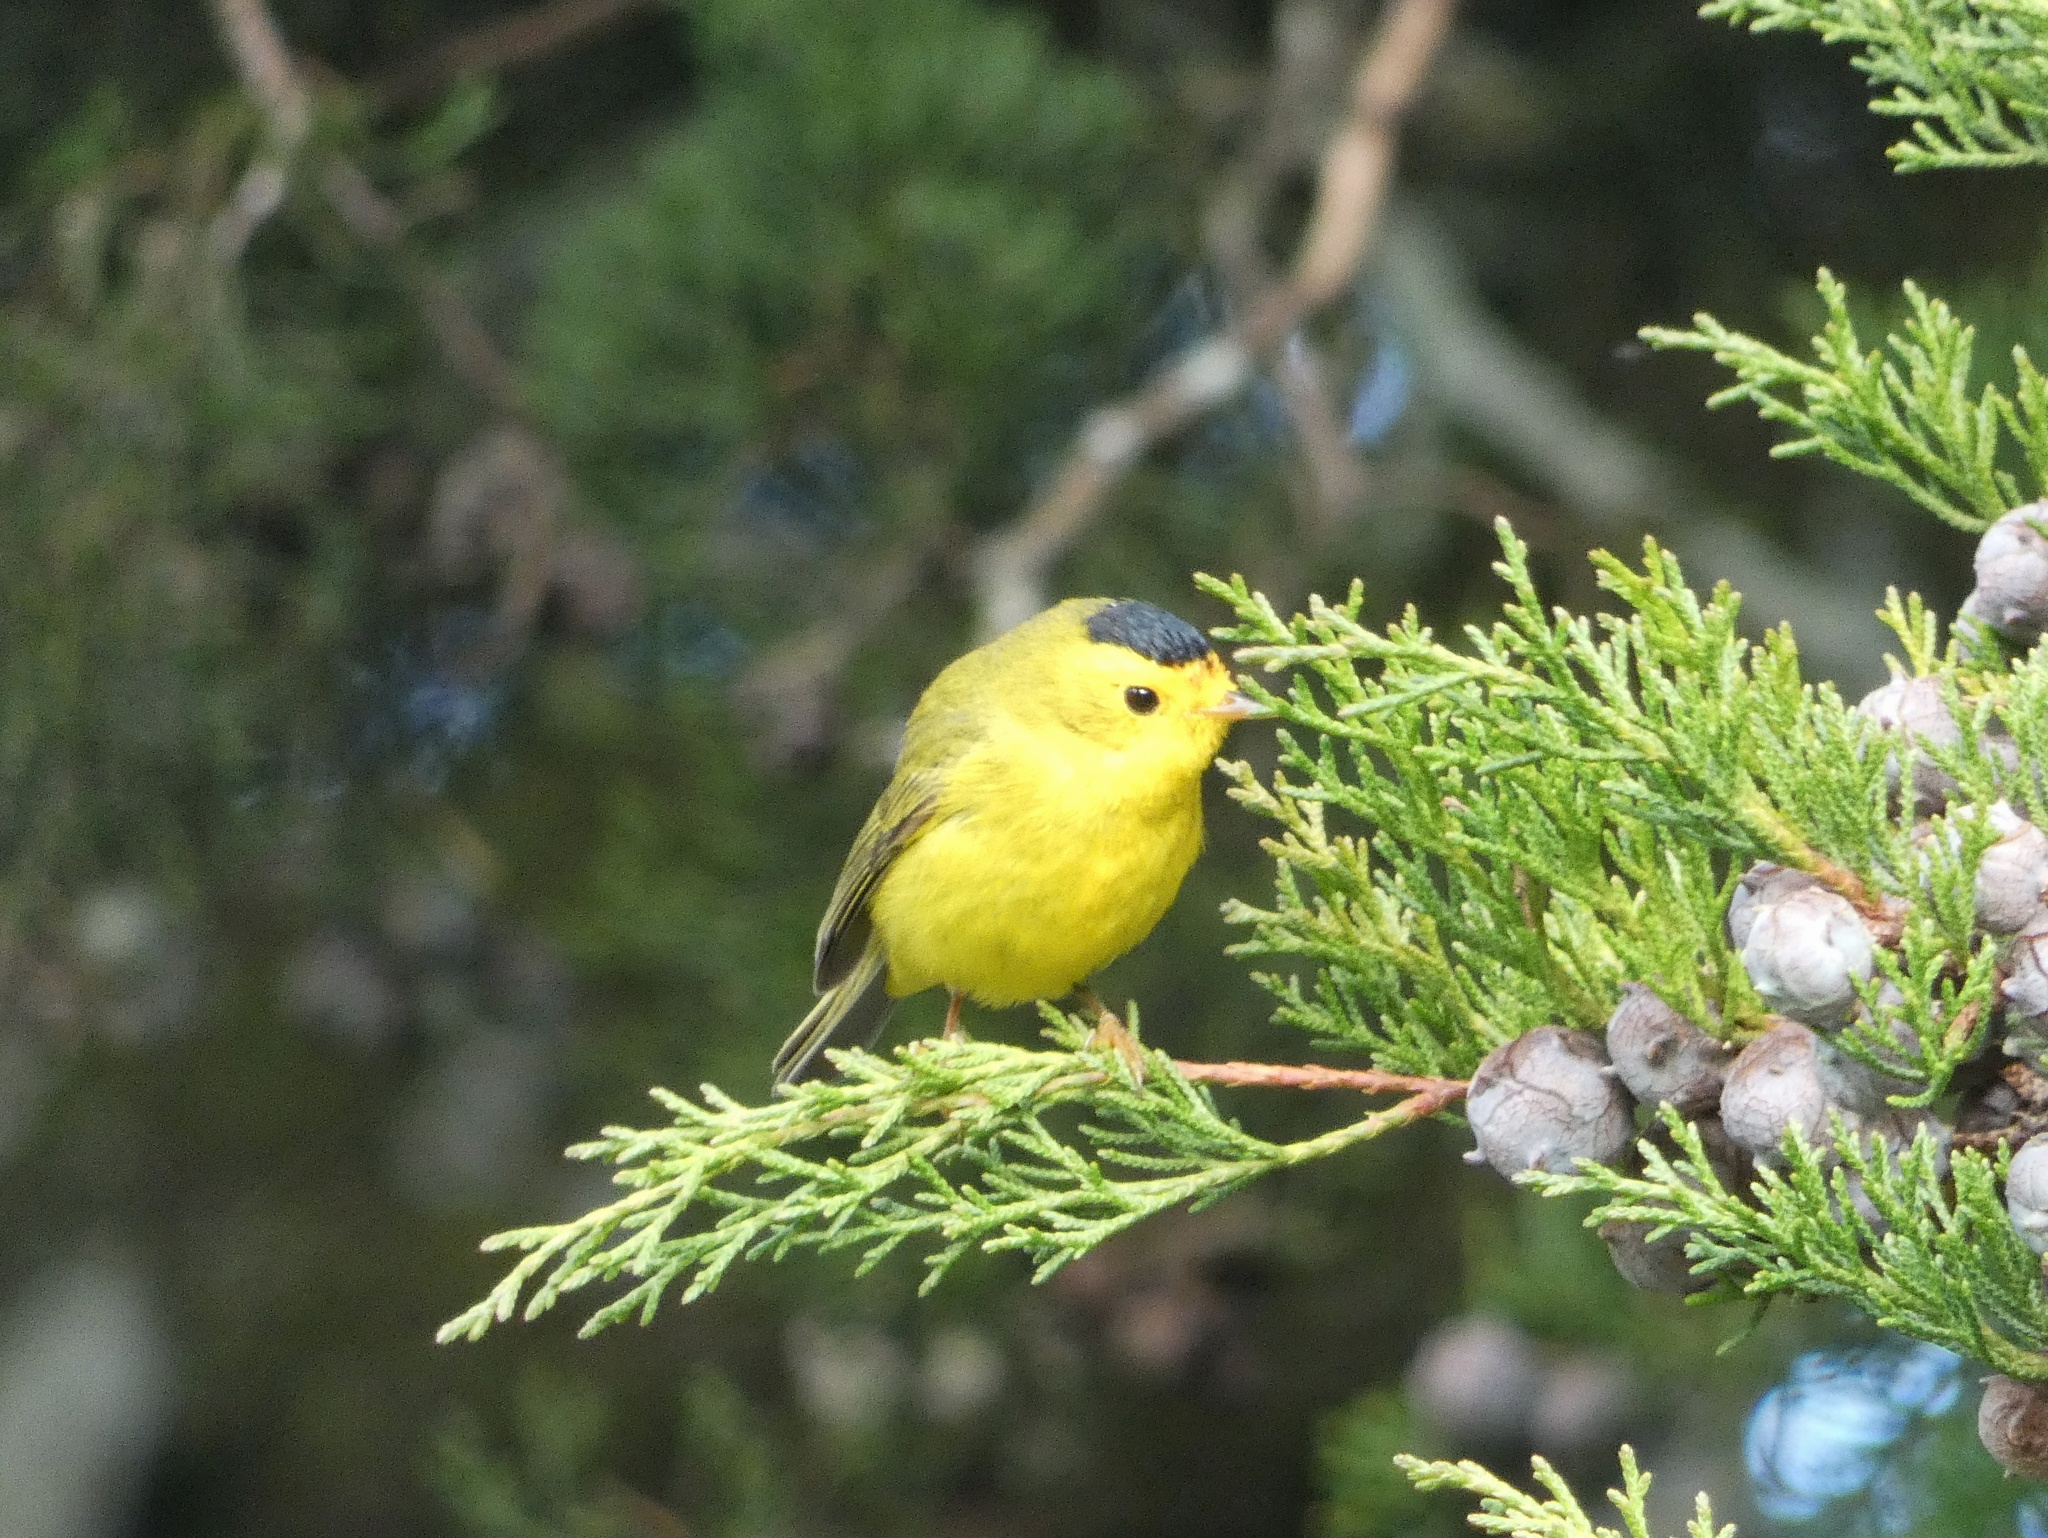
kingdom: Animalia
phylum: Chordata
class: Aves
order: Passeriformes
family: Parulidae
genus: Cardellina
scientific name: Cardellina pusilla
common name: Wilson's warbler
